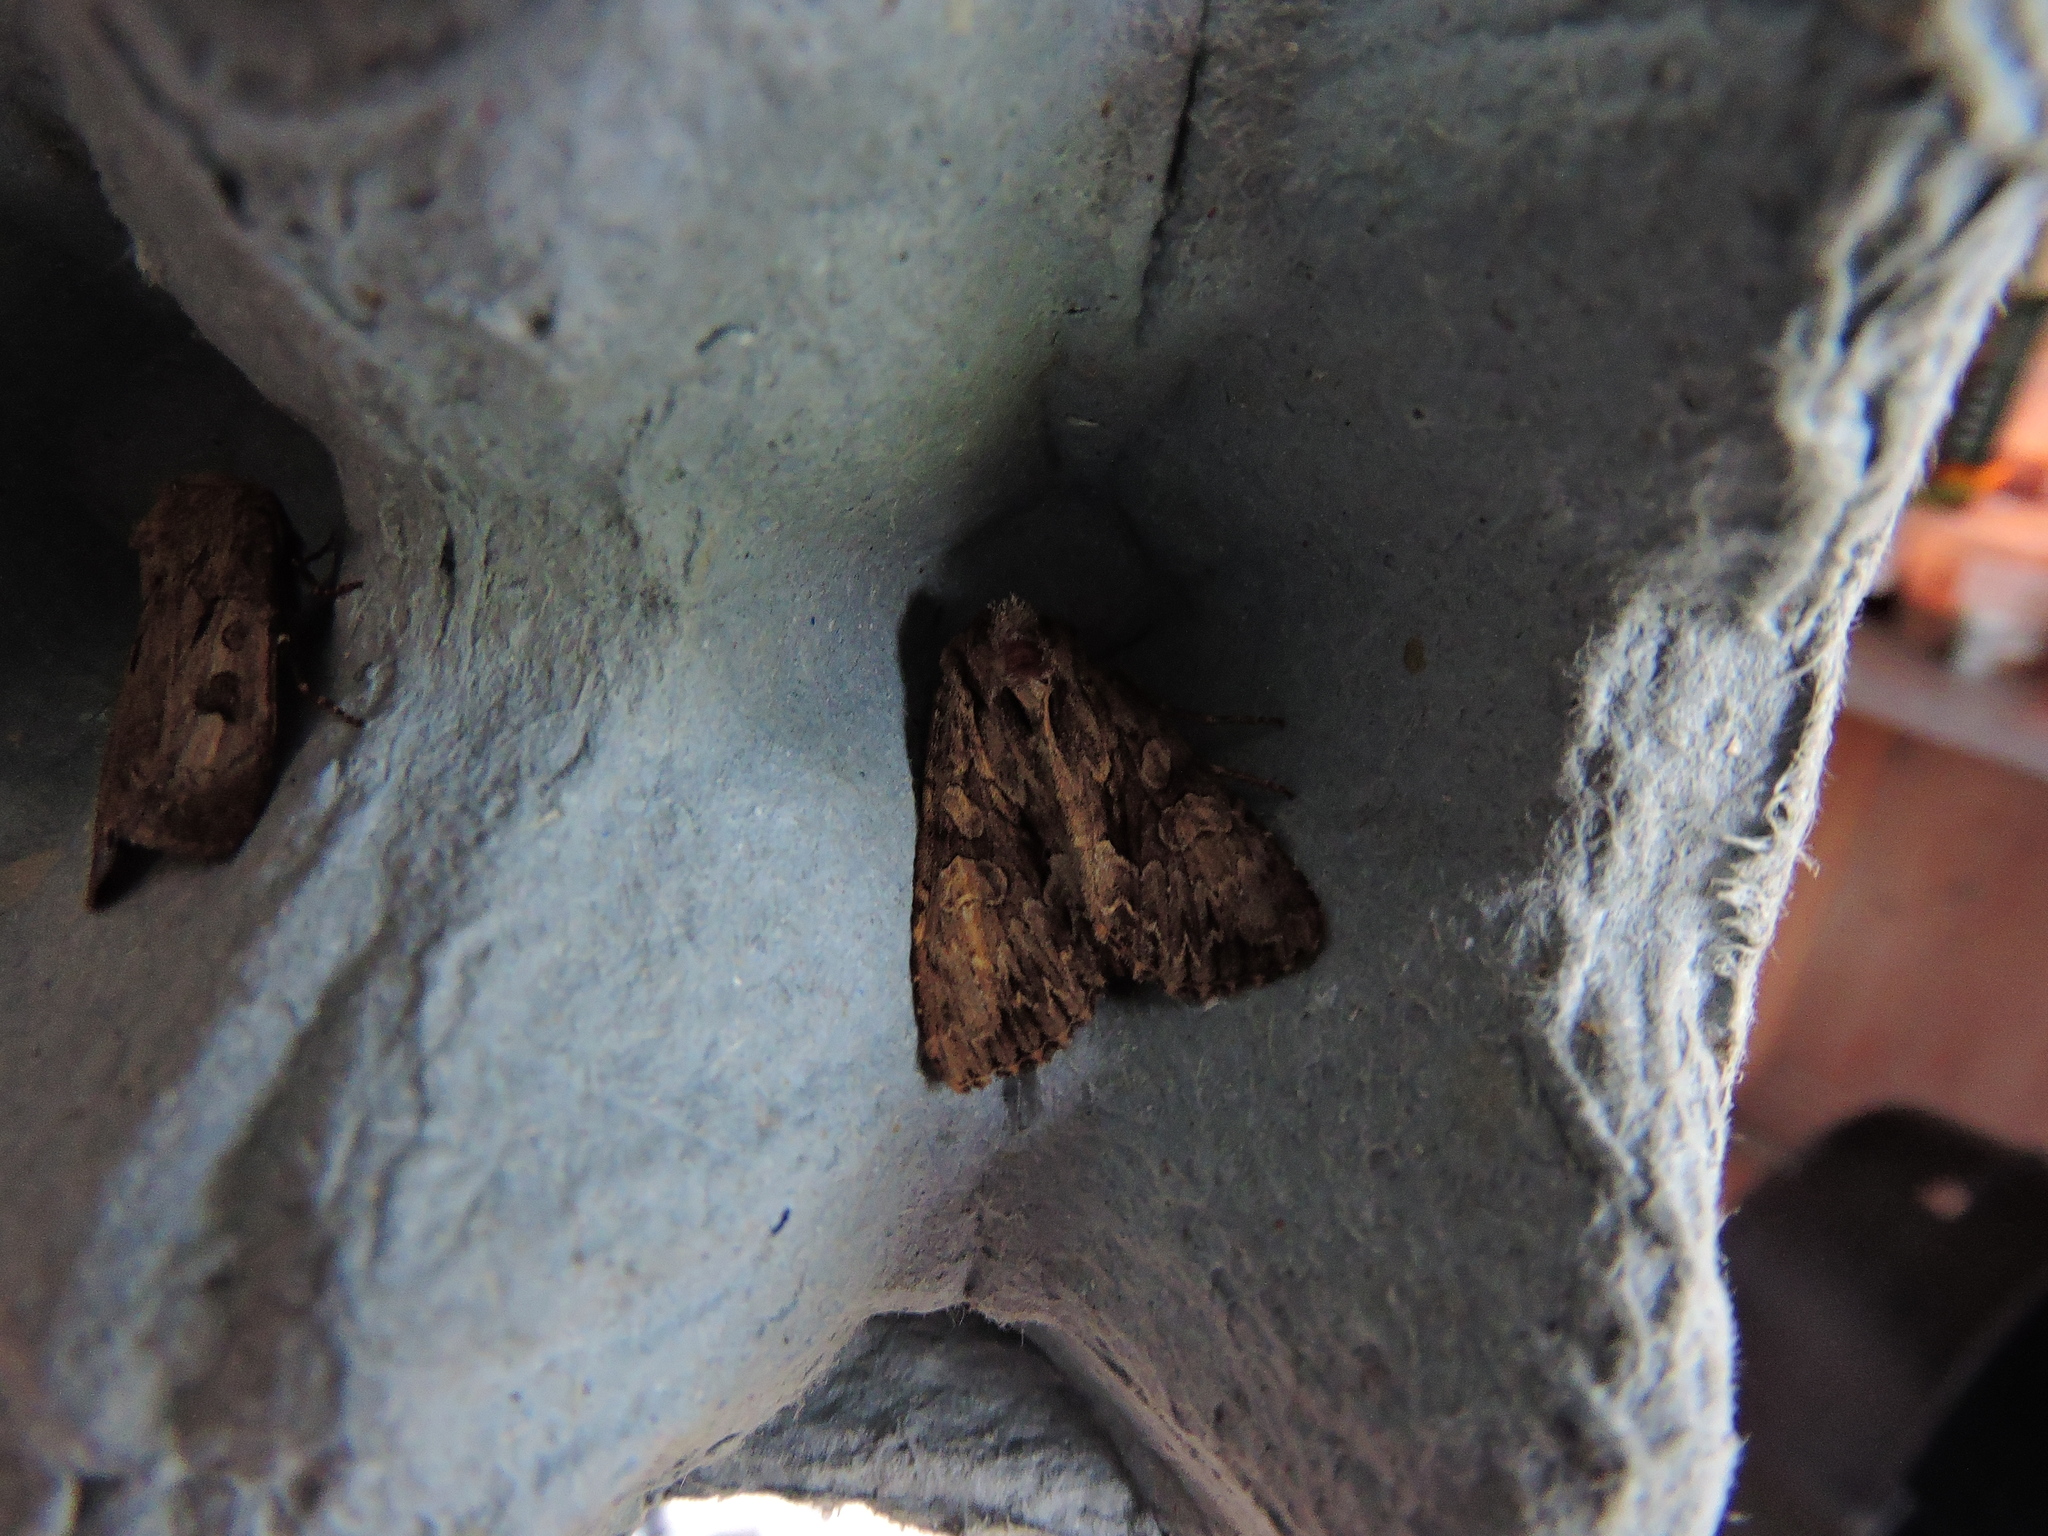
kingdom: Animalia
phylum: Arthropoda
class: Insecta
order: Lepidoptera
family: Noctuidae
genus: Apamea
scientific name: Apamea monoglypha
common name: Dark arches
